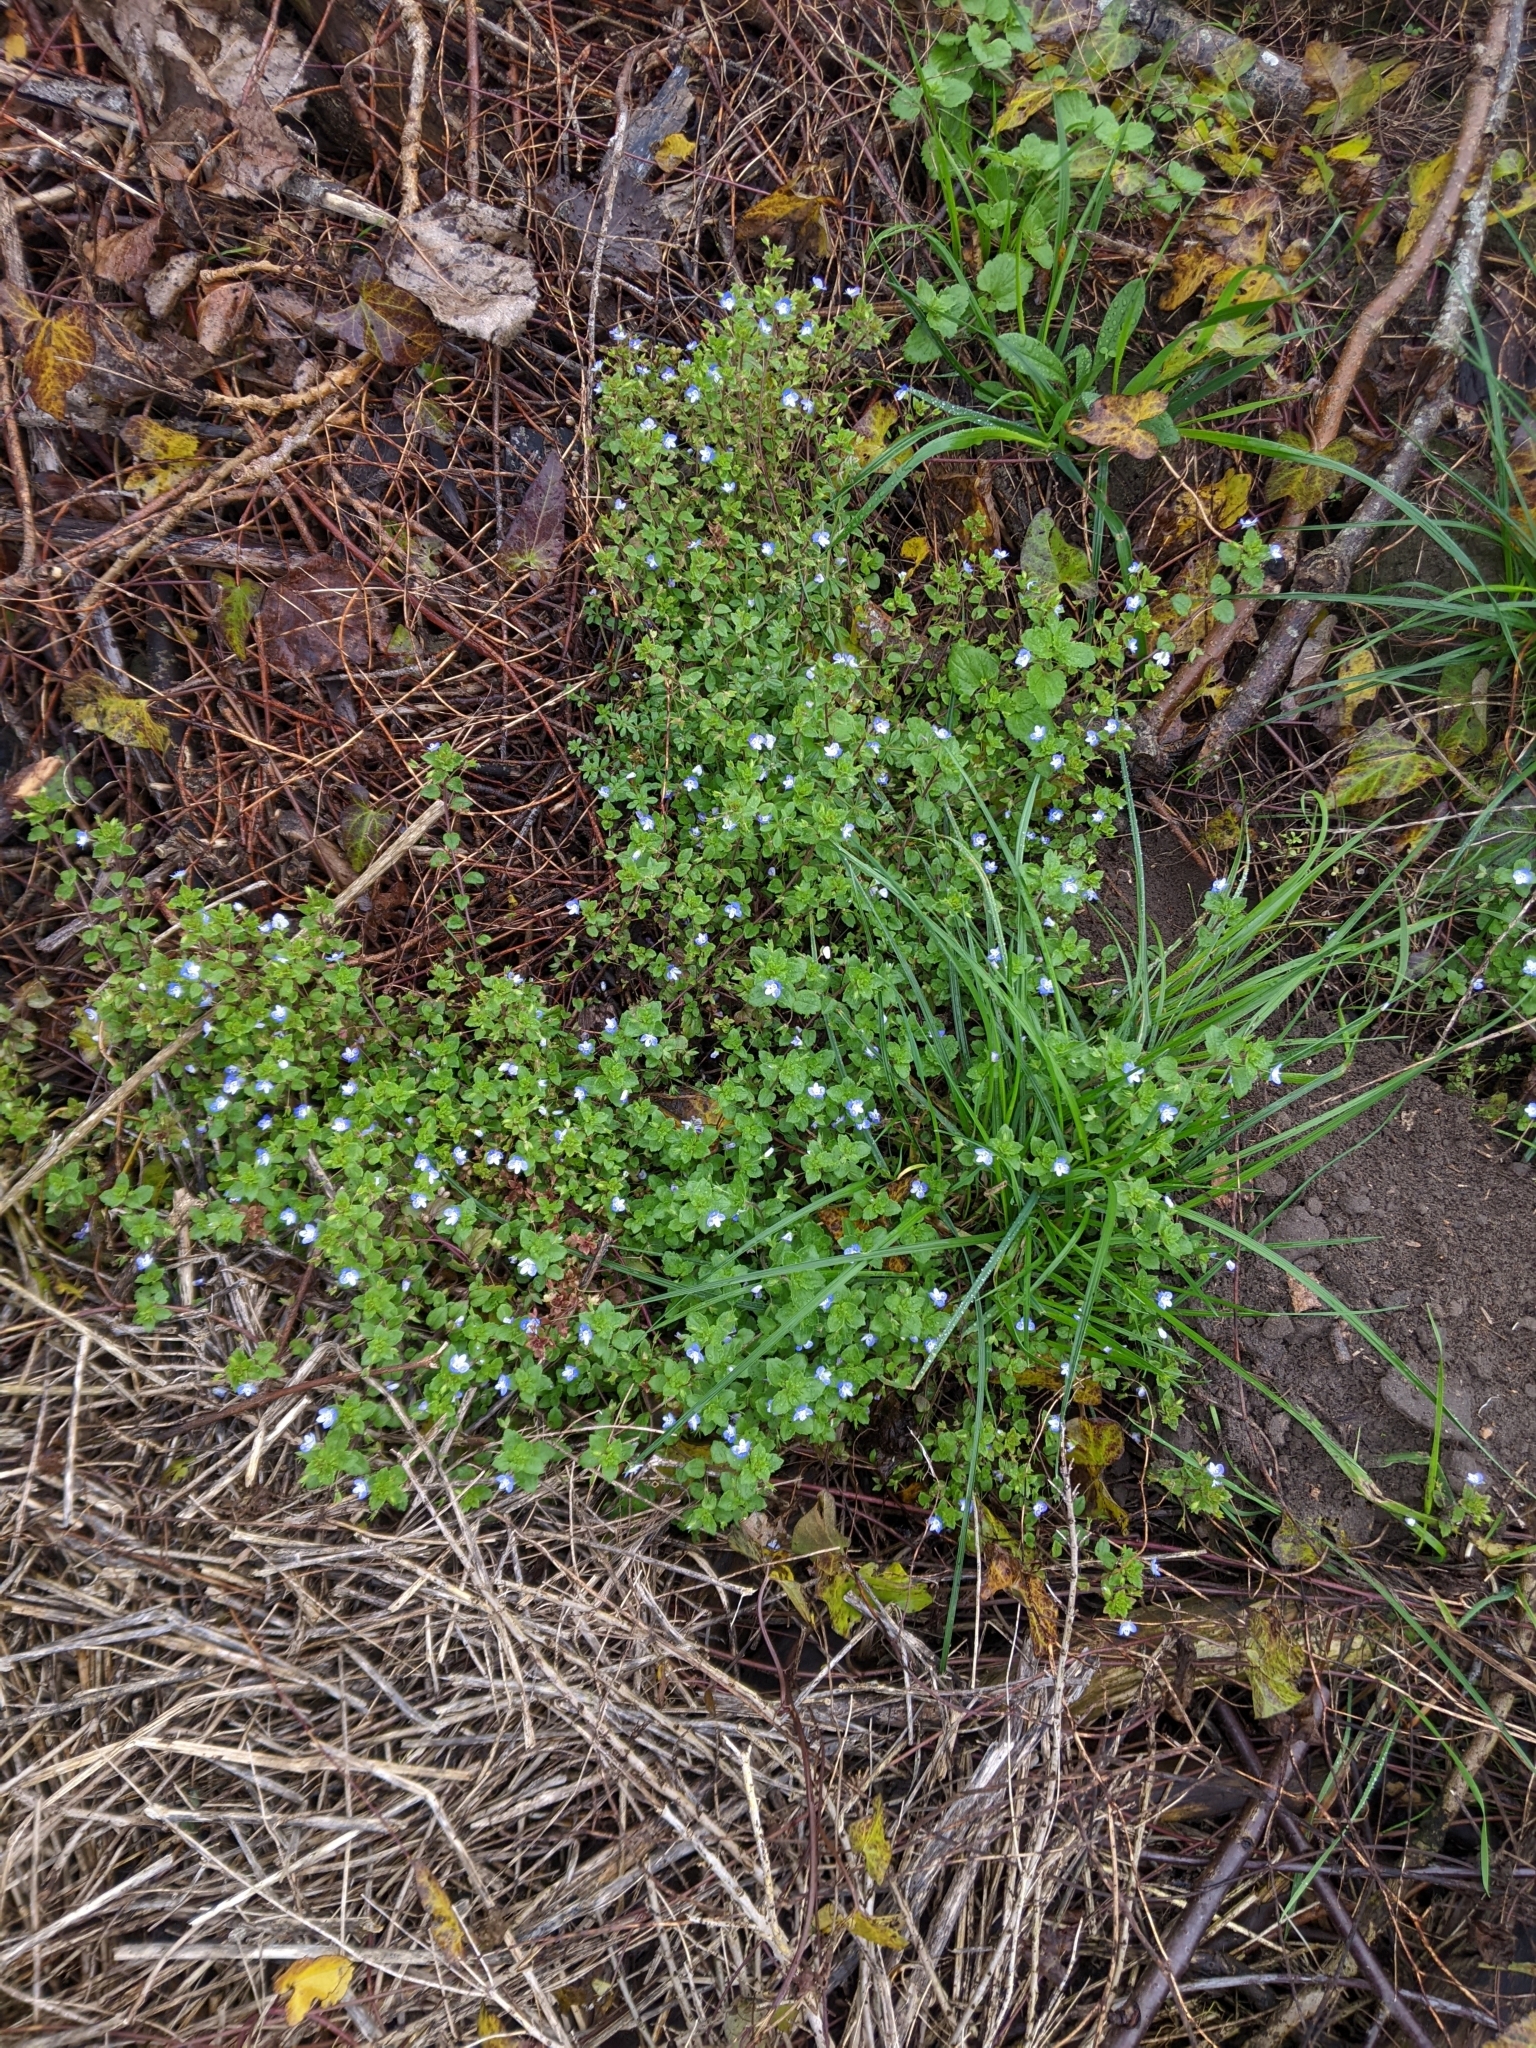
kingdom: Plantae
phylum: Tracheophyta
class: Magnoliopsida
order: Lamiales
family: Plantaginaceae
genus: Veronica
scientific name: Veronica persica
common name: Common field-speedwell
